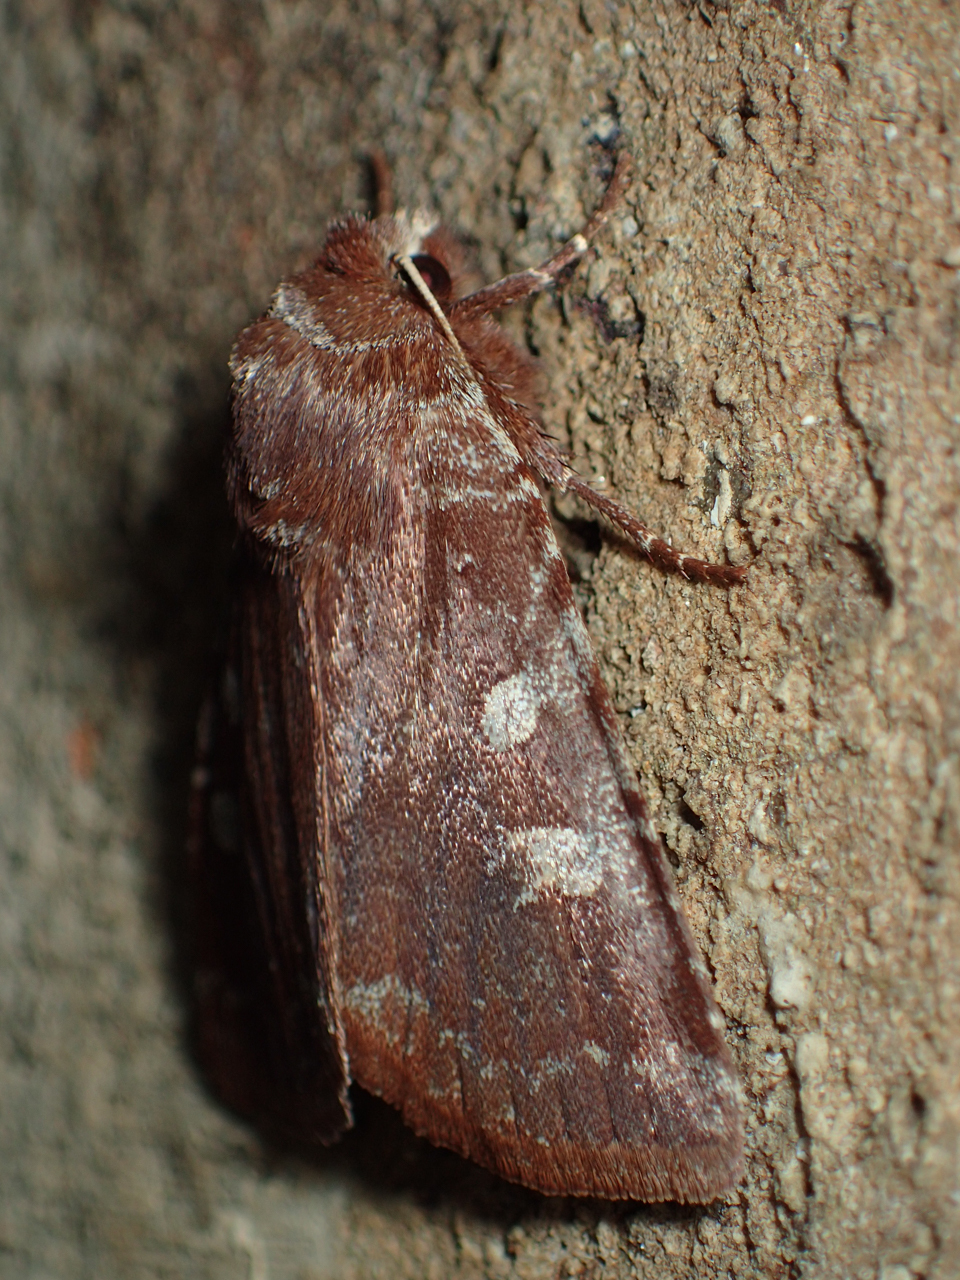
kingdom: Animalia
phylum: Arthropoda
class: Insecta
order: Lepidoptera
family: Noctuidae
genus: Cerastis
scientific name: Cerastis tenebrifera
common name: Reddish speckled dart
